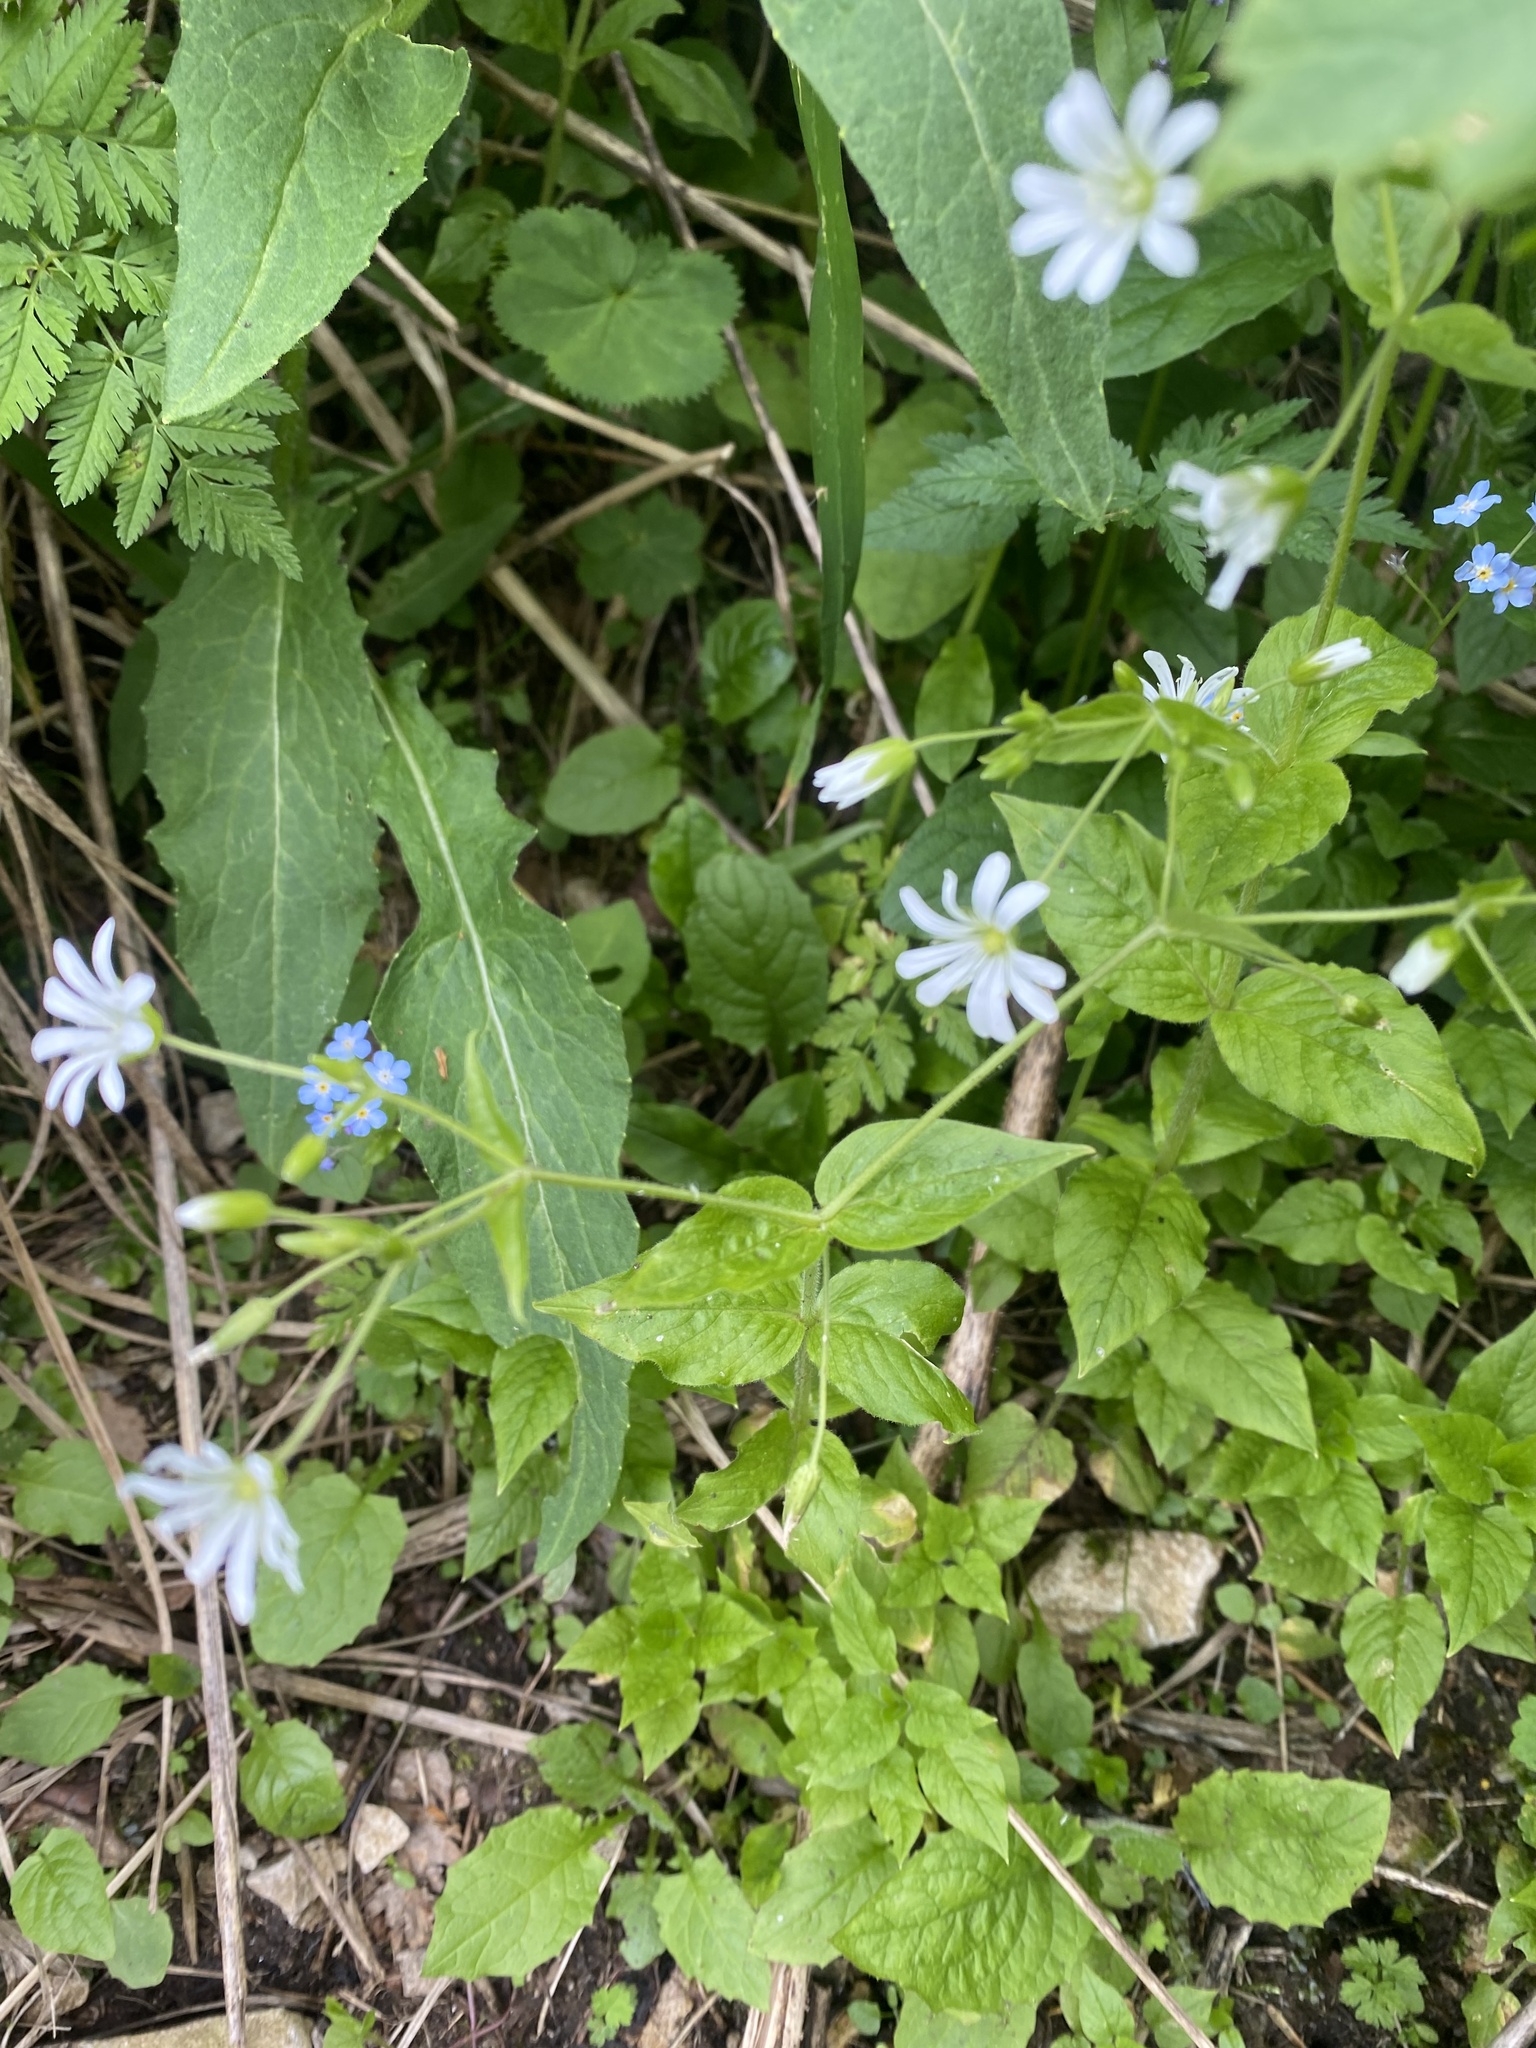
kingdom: Plantae
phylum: Tracheophyta
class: Magnoliopsida
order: Caryophyllales
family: Caryophyllaceae
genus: Stellaria
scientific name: Stellaria nemorum
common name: Wood stitchwort
